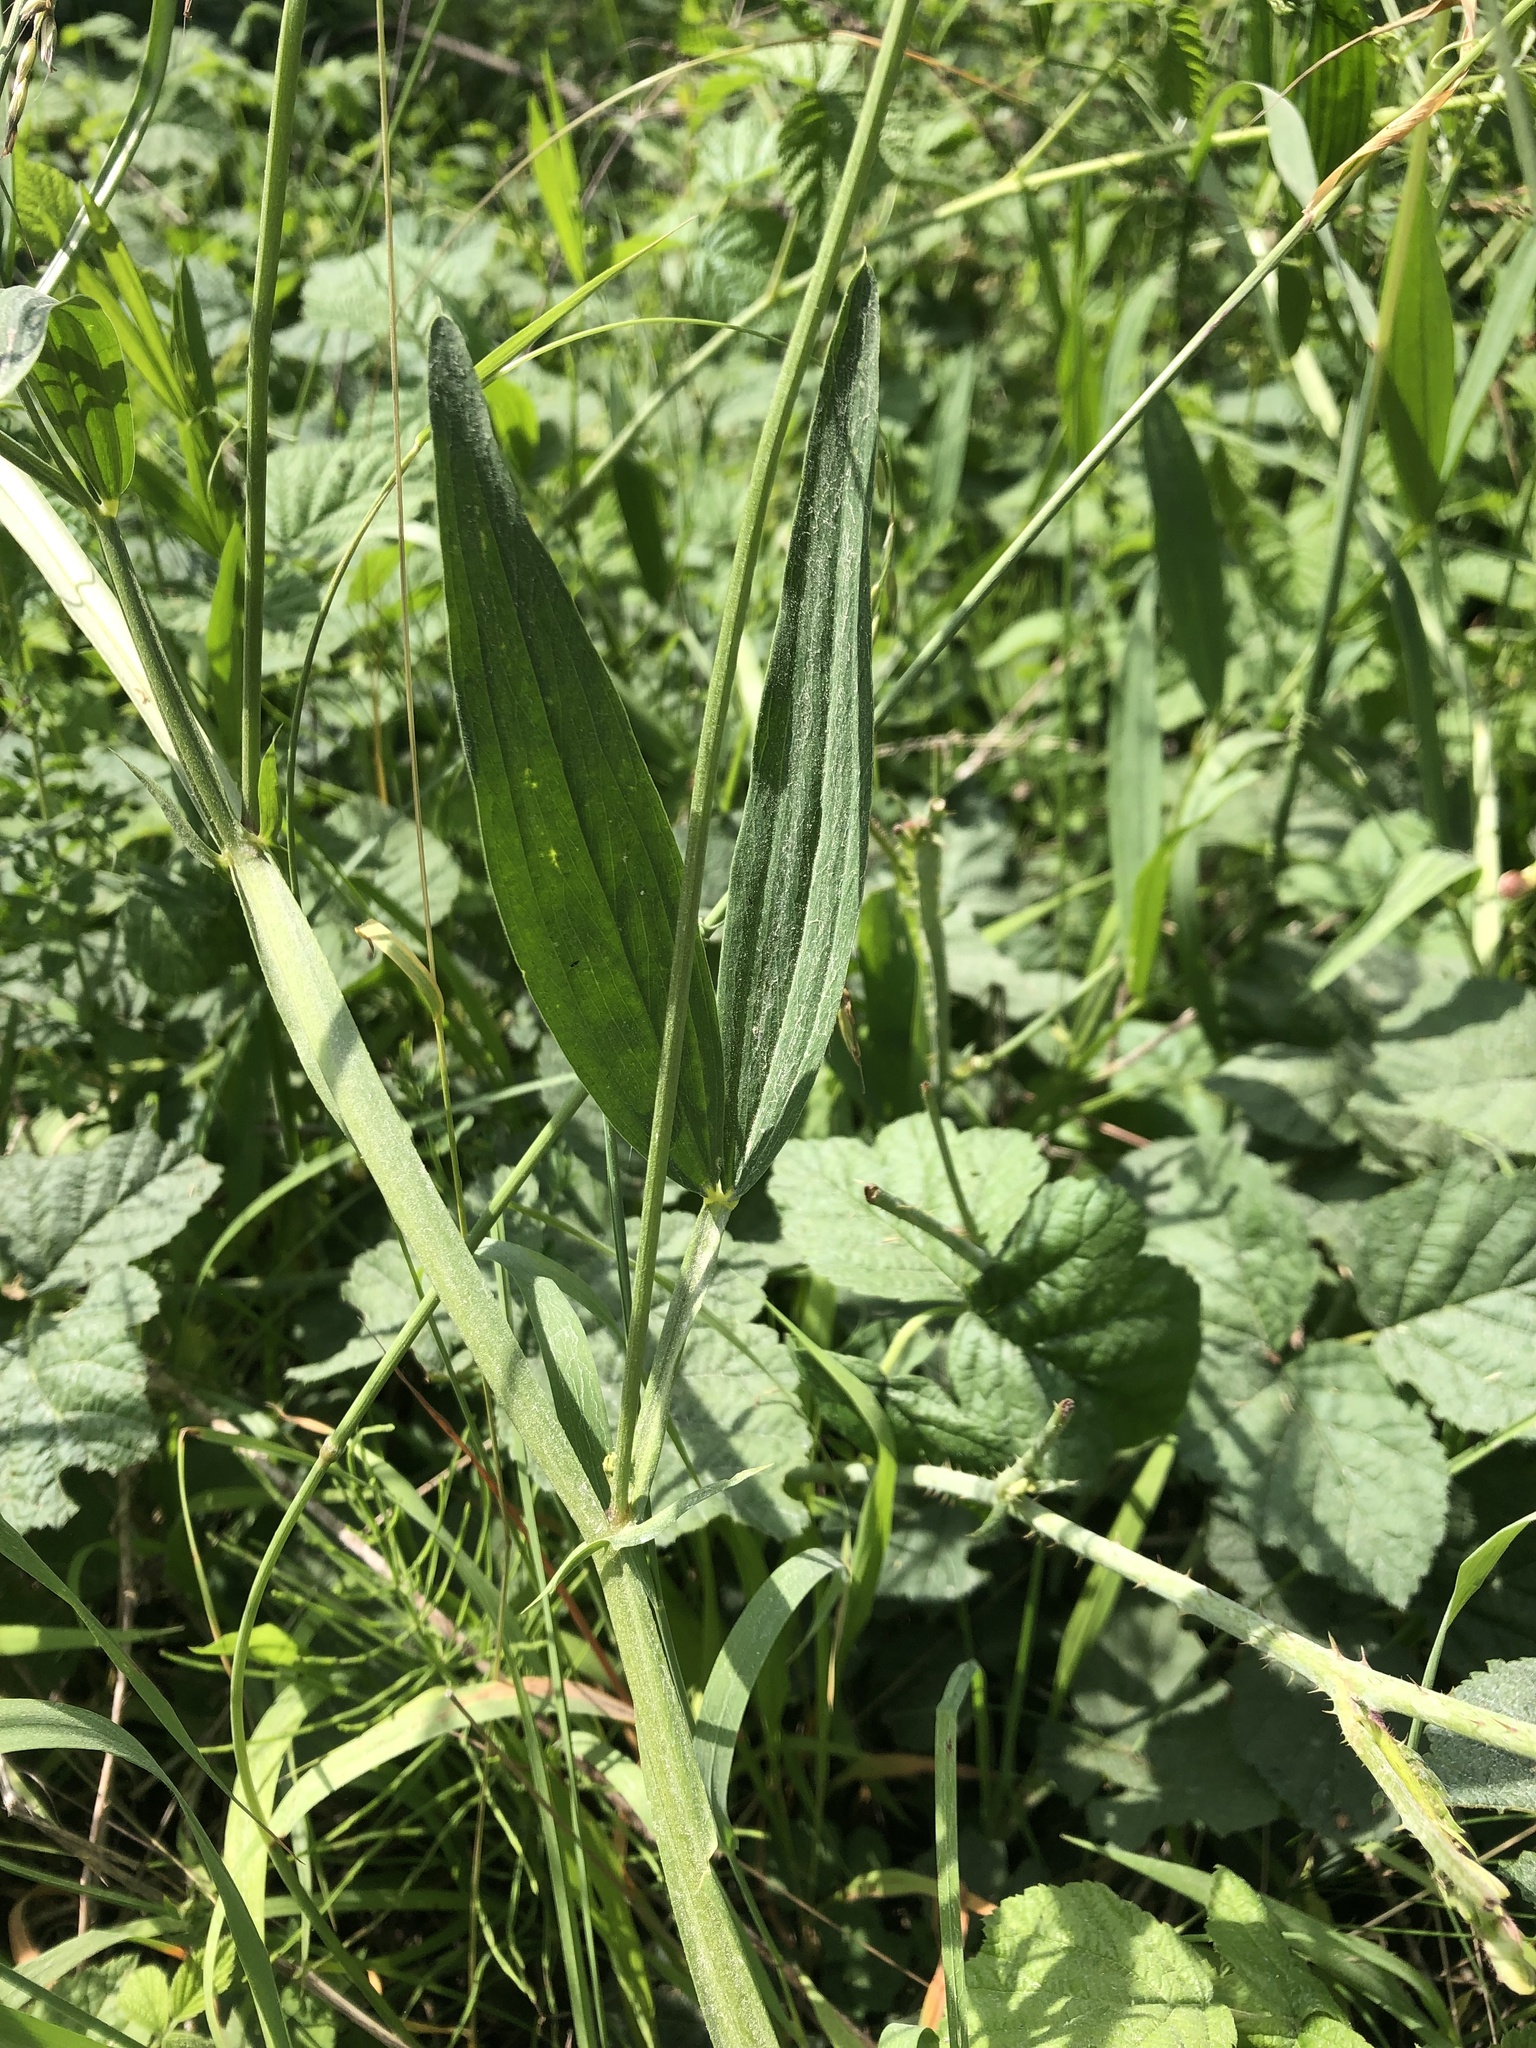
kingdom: Plantae
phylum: Tracheophyta
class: Magnoliopsida
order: Fabales
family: Fabaceae
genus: Lathyrus
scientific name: Lathyrus sylvestris
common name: Flat pea
